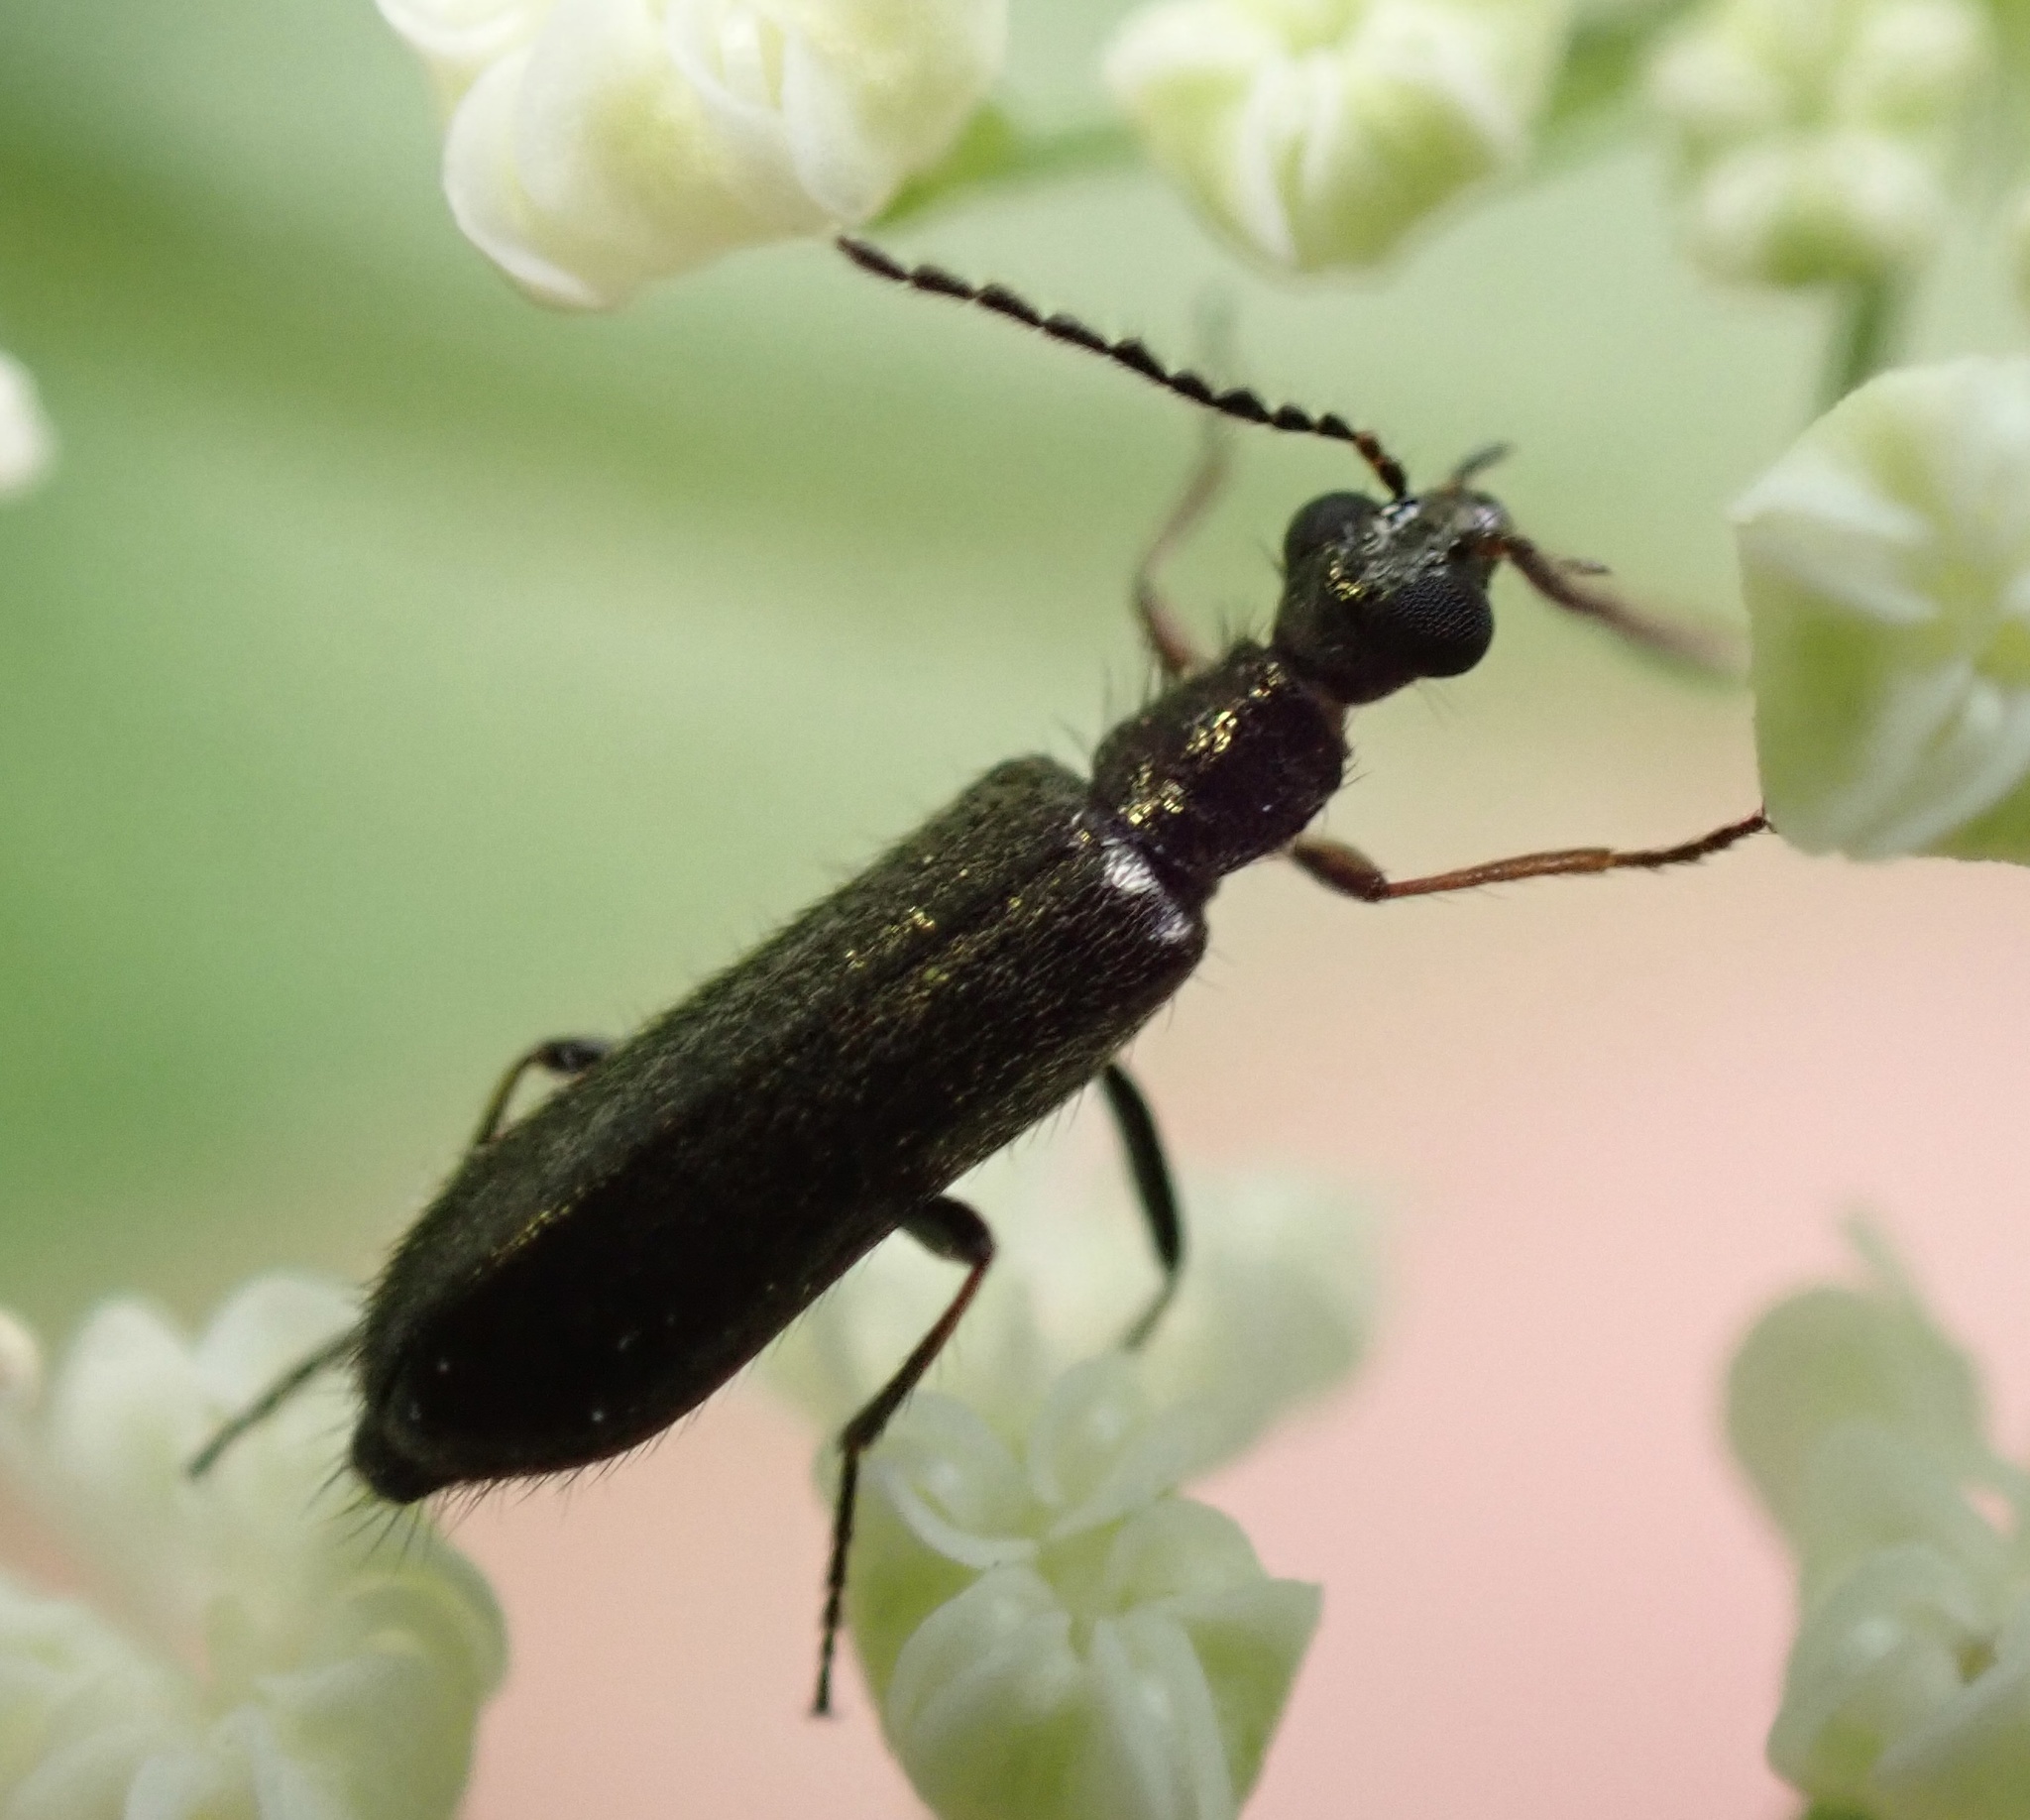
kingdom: Animalia
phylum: Arthropoda
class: Insecta
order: Coleoptera
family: Melyridae
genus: Dasytes
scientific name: Dasytes plumbeus
